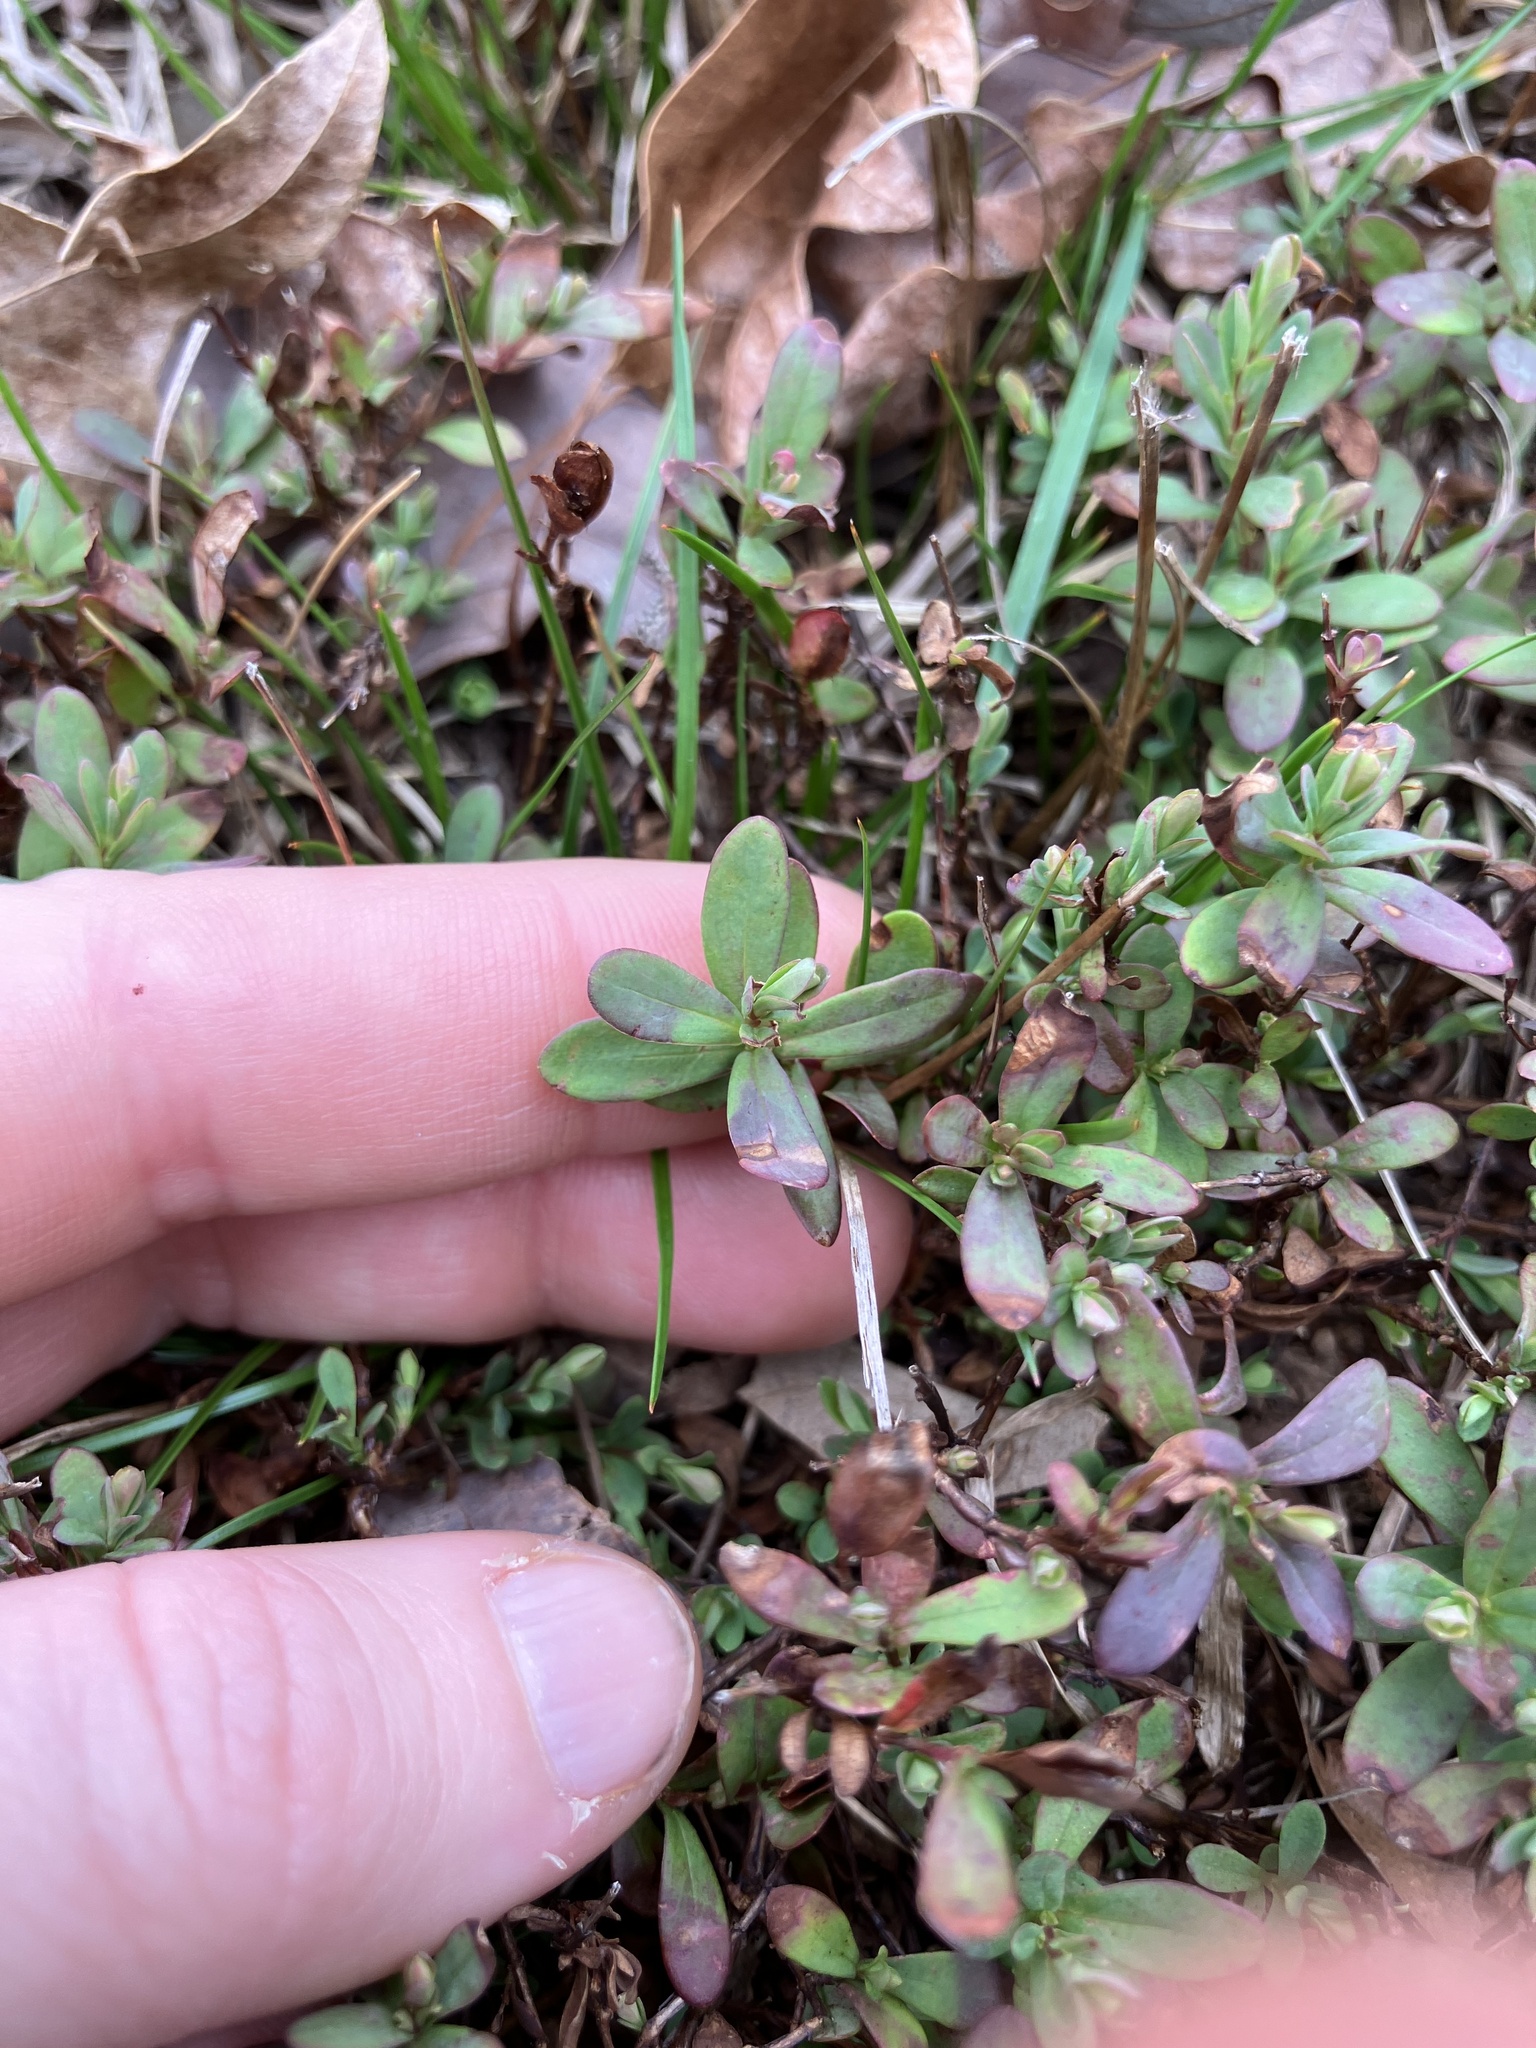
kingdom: Plantae
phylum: Tracheophyta
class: Magnoliopsida
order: Malpighiales
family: Hypericaceae
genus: Hypericum
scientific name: Hypericum hypericoides
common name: St. andrew's cross
